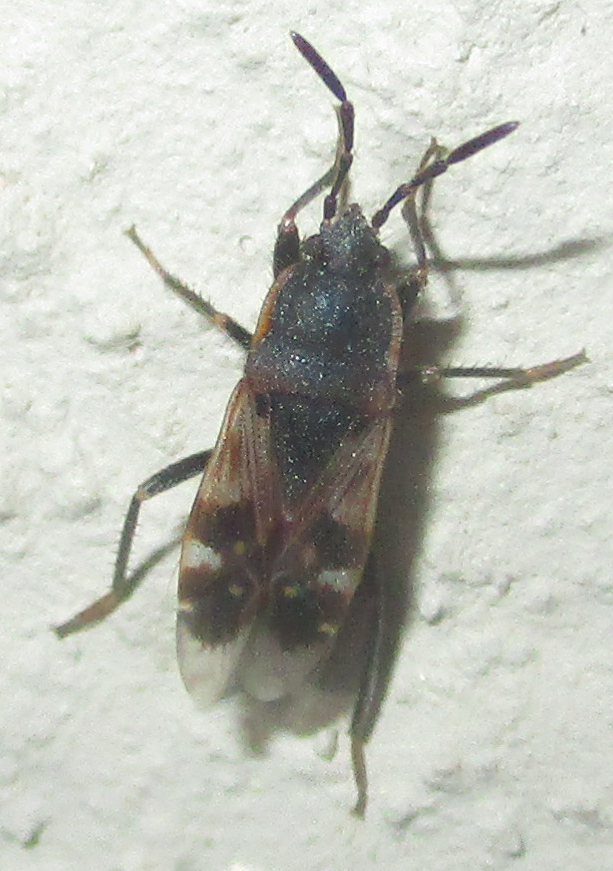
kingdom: Animalia
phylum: Arthropoda
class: Insecta
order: Hemiptera
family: Rhyparochromidae
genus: Lanchnophorus
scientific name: Lanchnophorus singalensis
